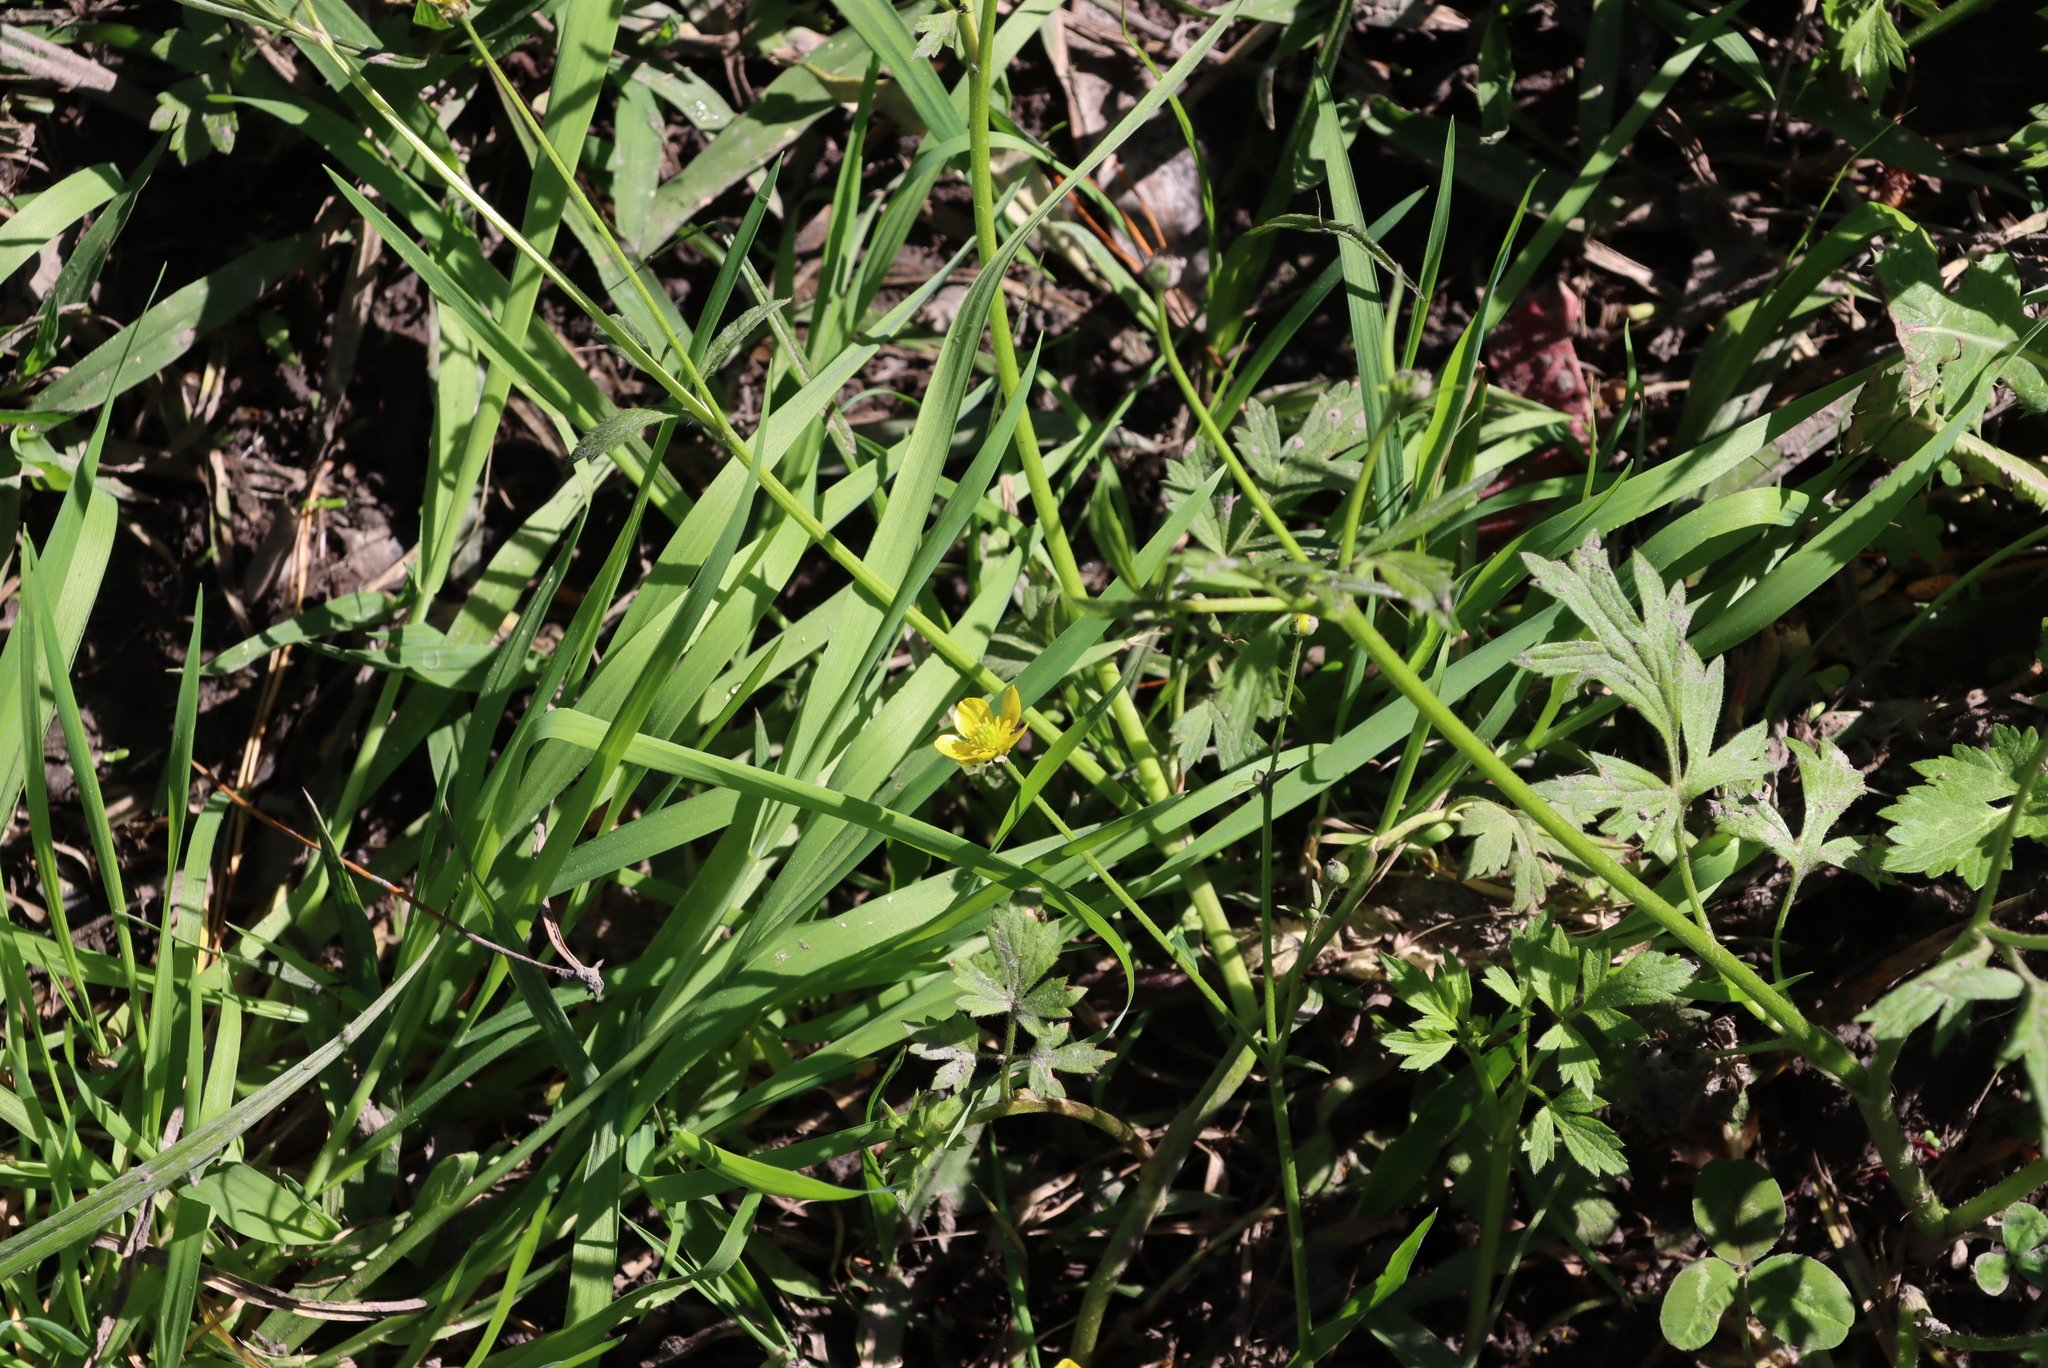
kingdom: Plantae
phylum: Tracheophyta
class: Magnoliopsida
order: Ranunculales
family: Ranunculaceae
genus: Ranunculus
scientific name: Ranunculus multifidus
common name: Wild buttercup
